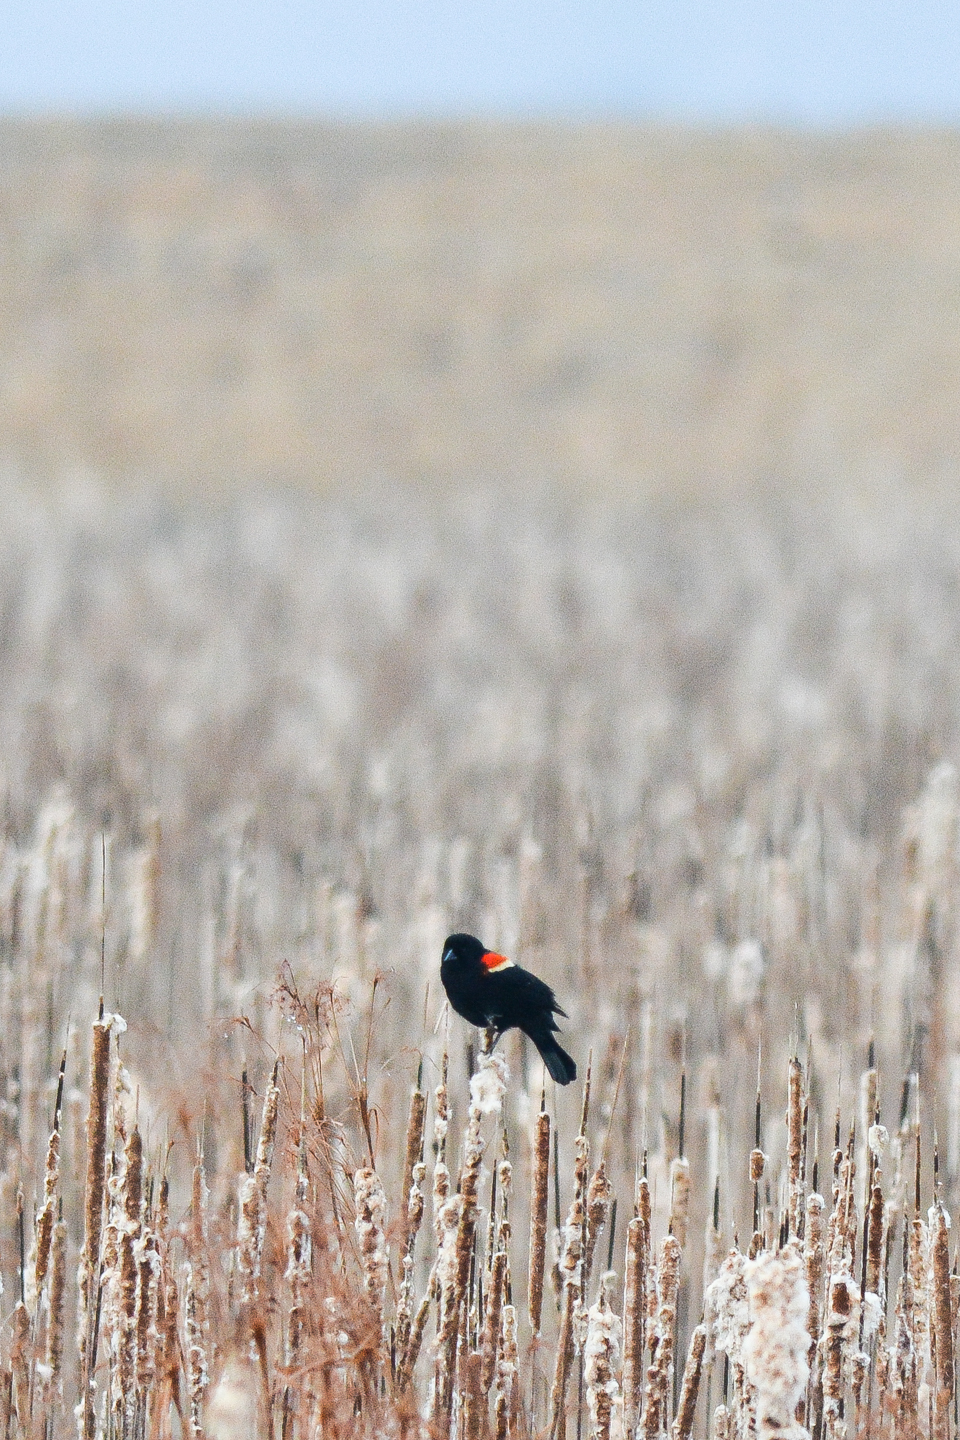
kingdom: Animalia
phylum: Chordata
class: Aves
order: Passeriformes
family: Icteridae
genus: Agelaius
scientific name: Agelaius phoeniceus
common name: Red-winged blackbird
